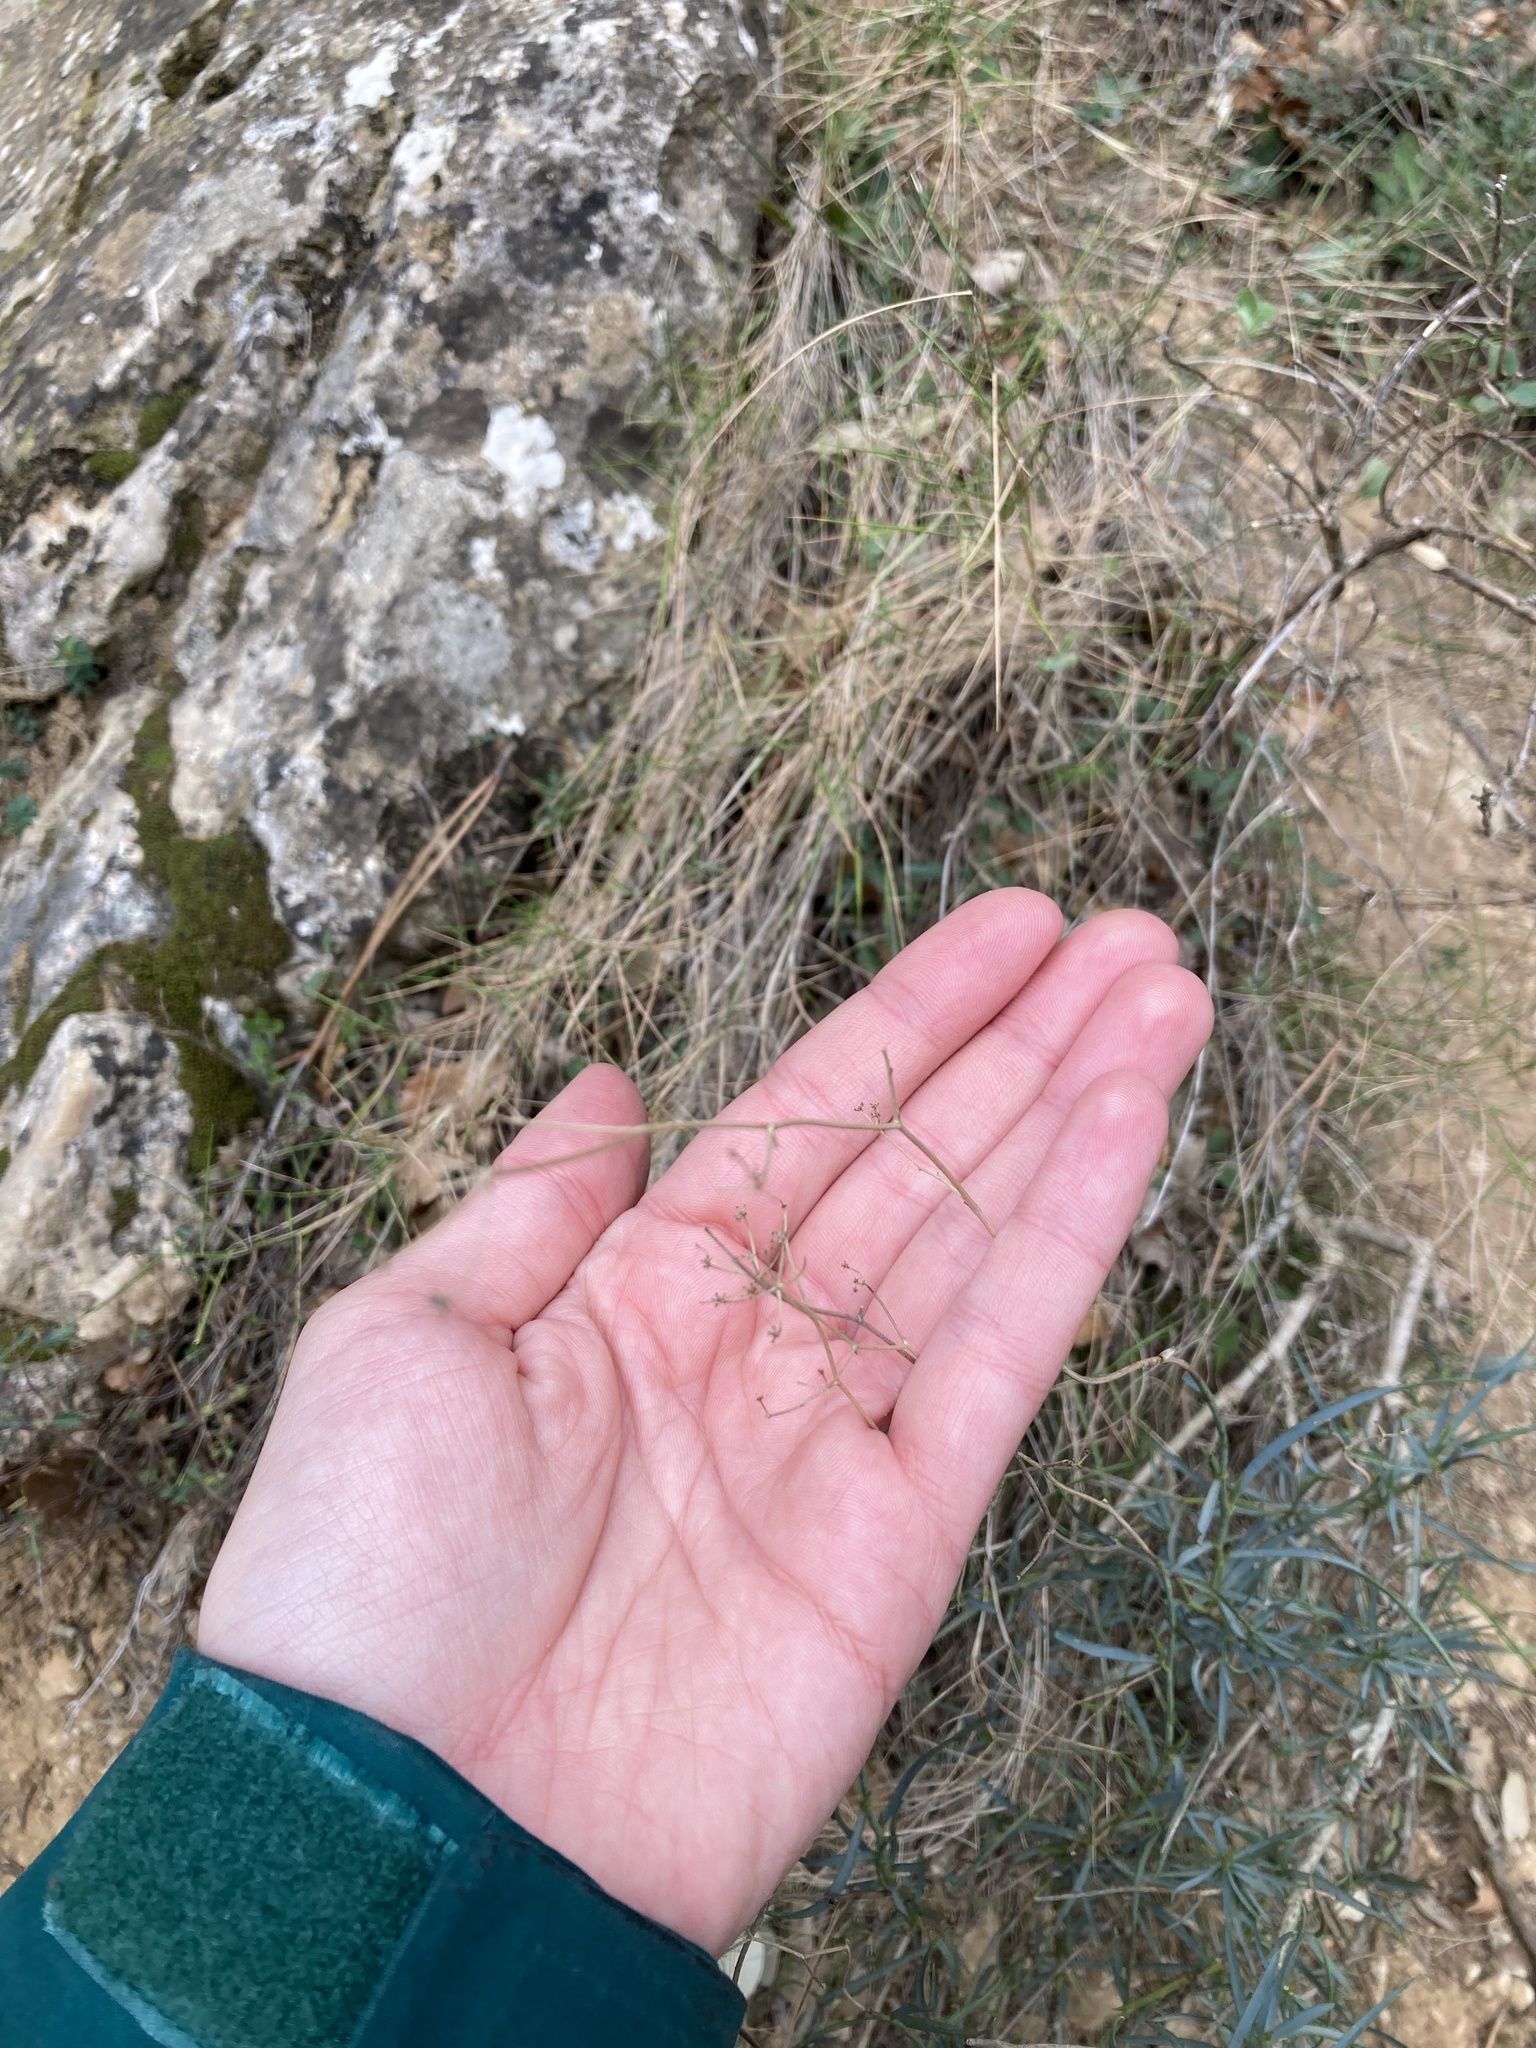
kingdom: Plantae
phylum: Tracheophyta
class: Magnoliopsida
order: Apiales
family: Apiaceae
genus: Bupleurum
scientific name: Bupleurum fruticescens
